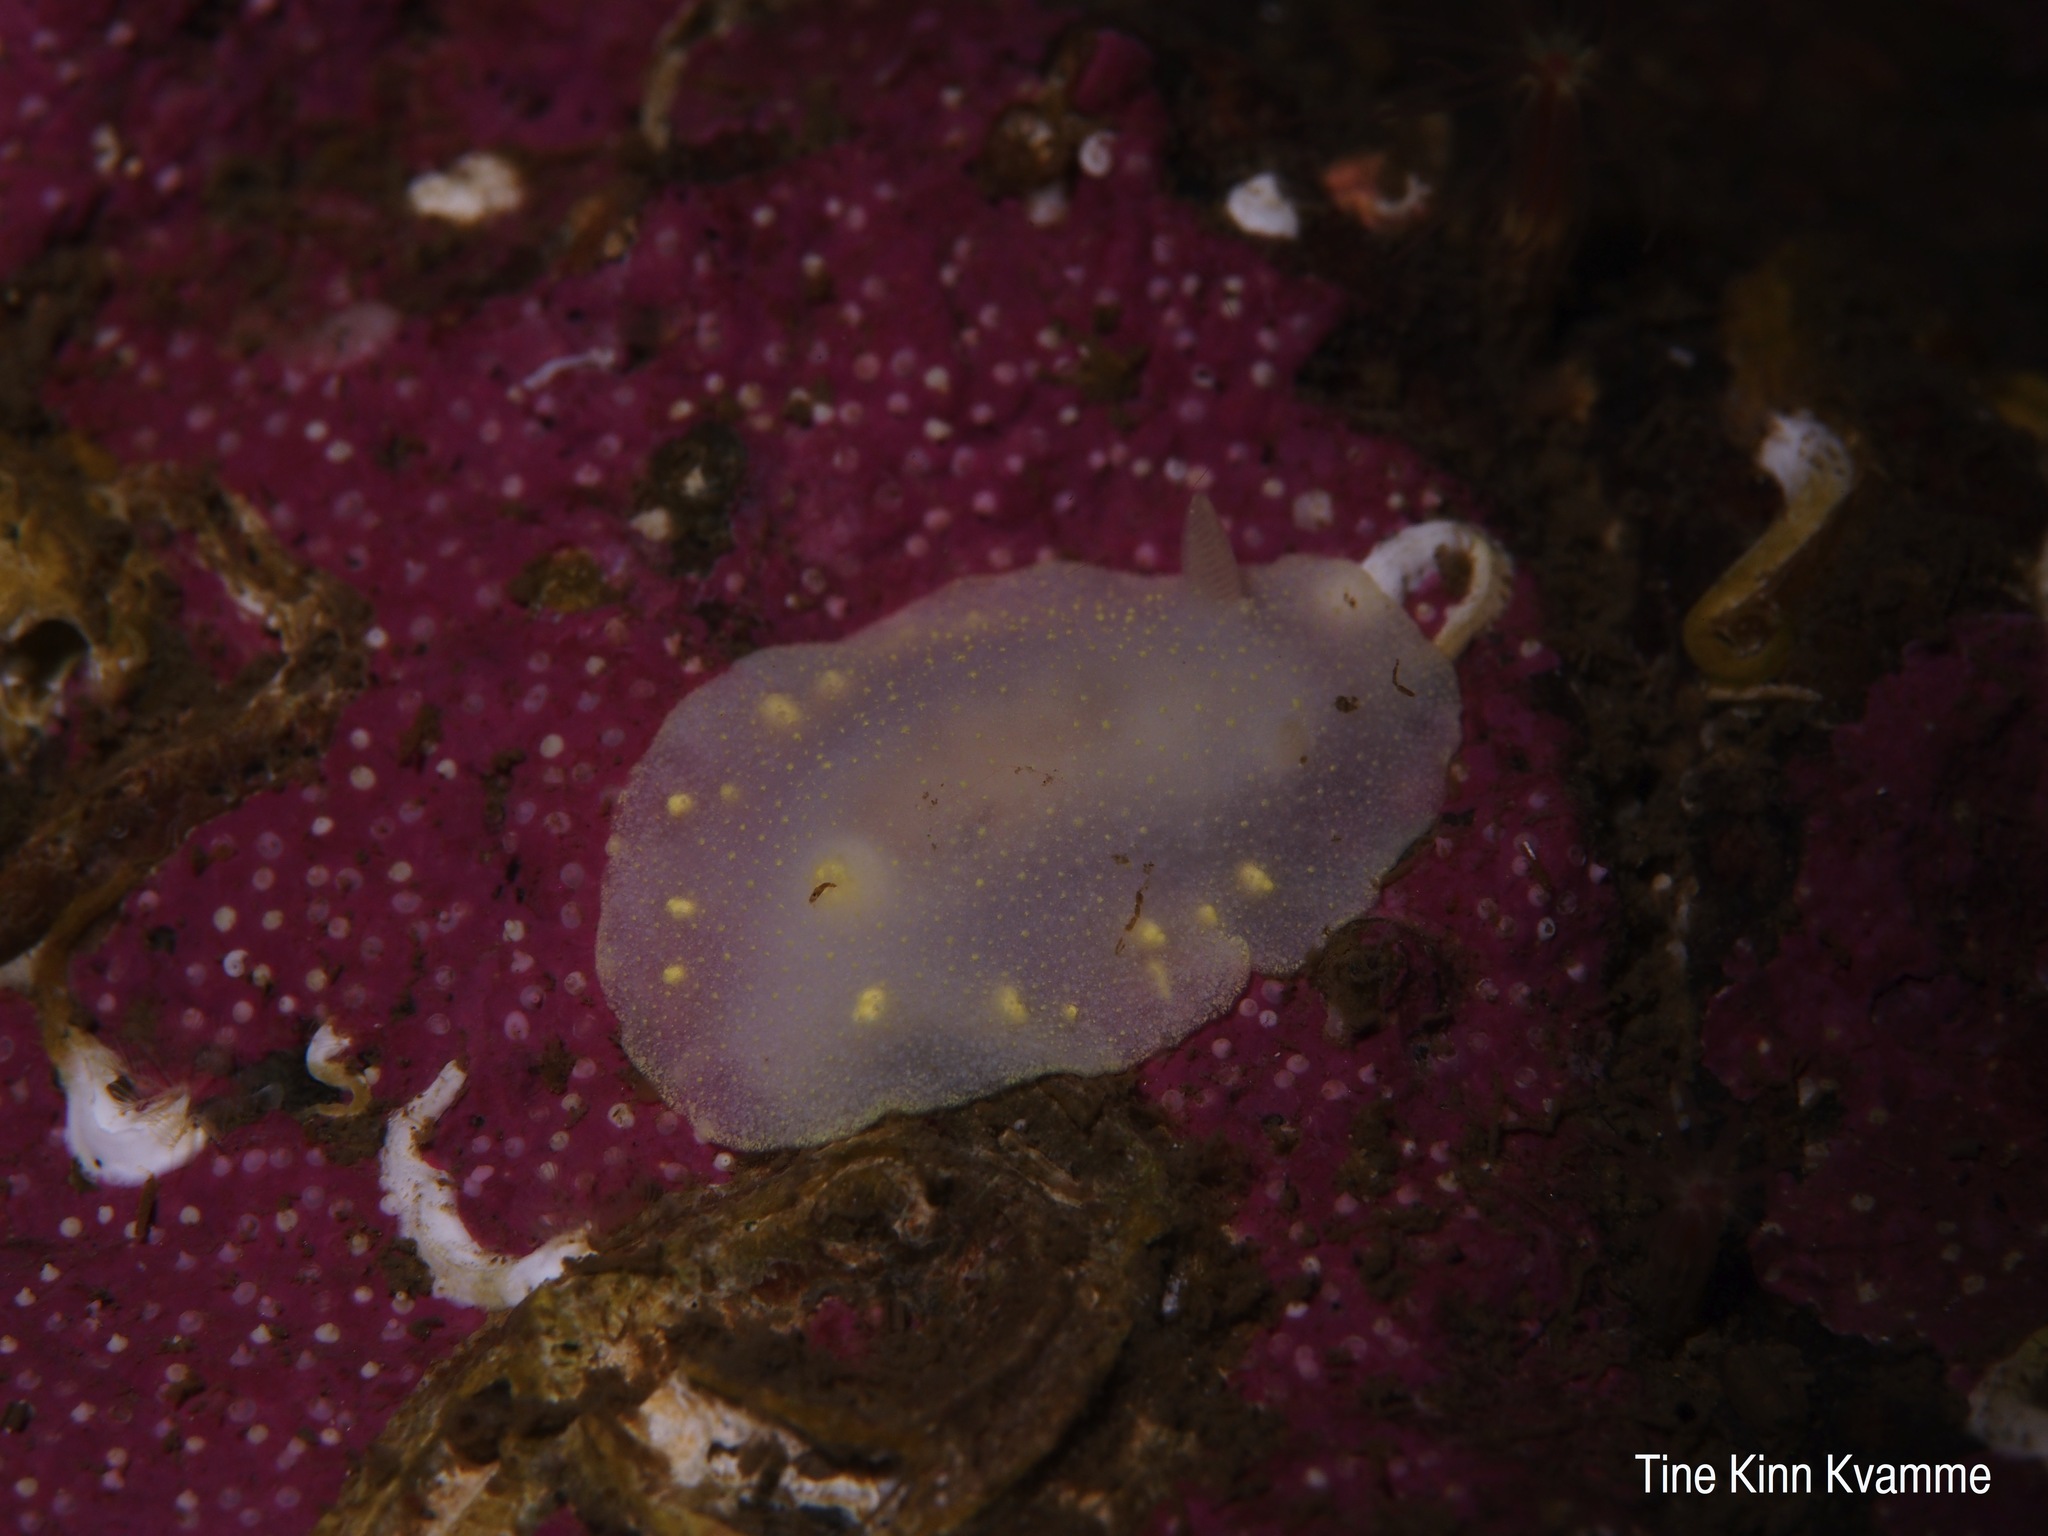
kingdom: Animalia
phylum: Mollusca
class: Gastropoda
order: Nudibranchia
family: Cadlinidae
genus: Cadlina
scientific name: Cadlina laevis
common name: White atlantic cadlina
